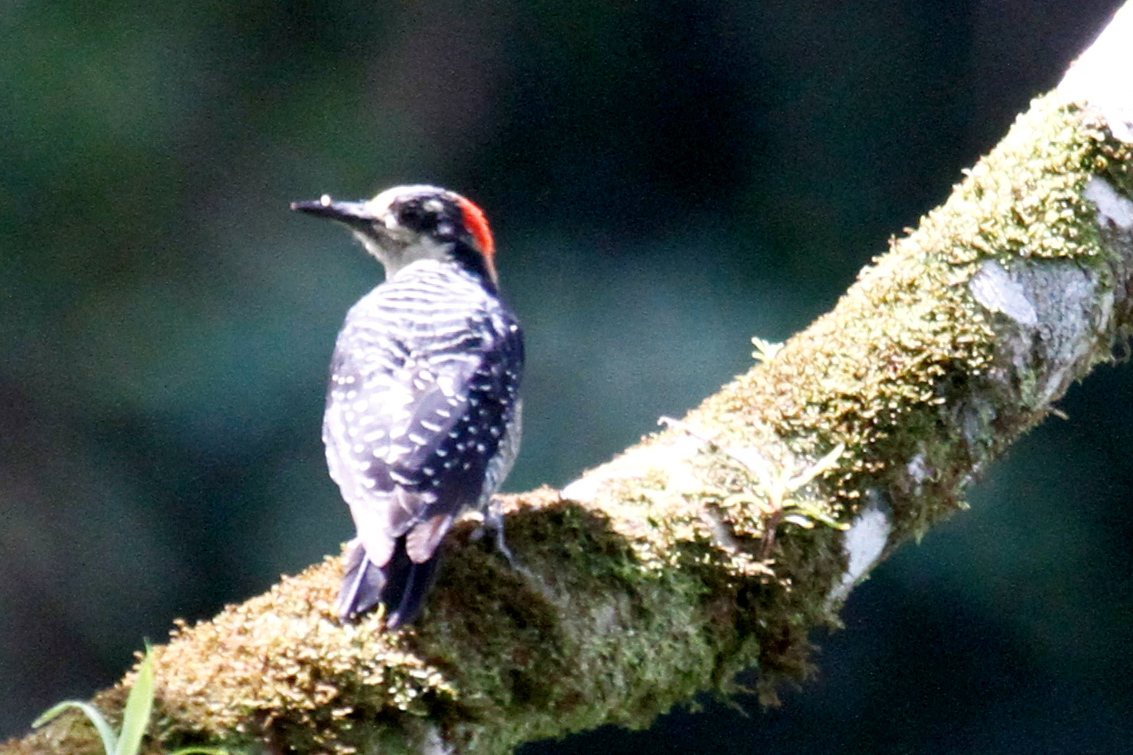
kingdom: Animalia
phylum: Chordata
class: Aves
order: Piciformes
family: Picidae
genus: Melanerpes
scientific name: Melanerpes pucherani
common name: Black-cheeked woodpecker
